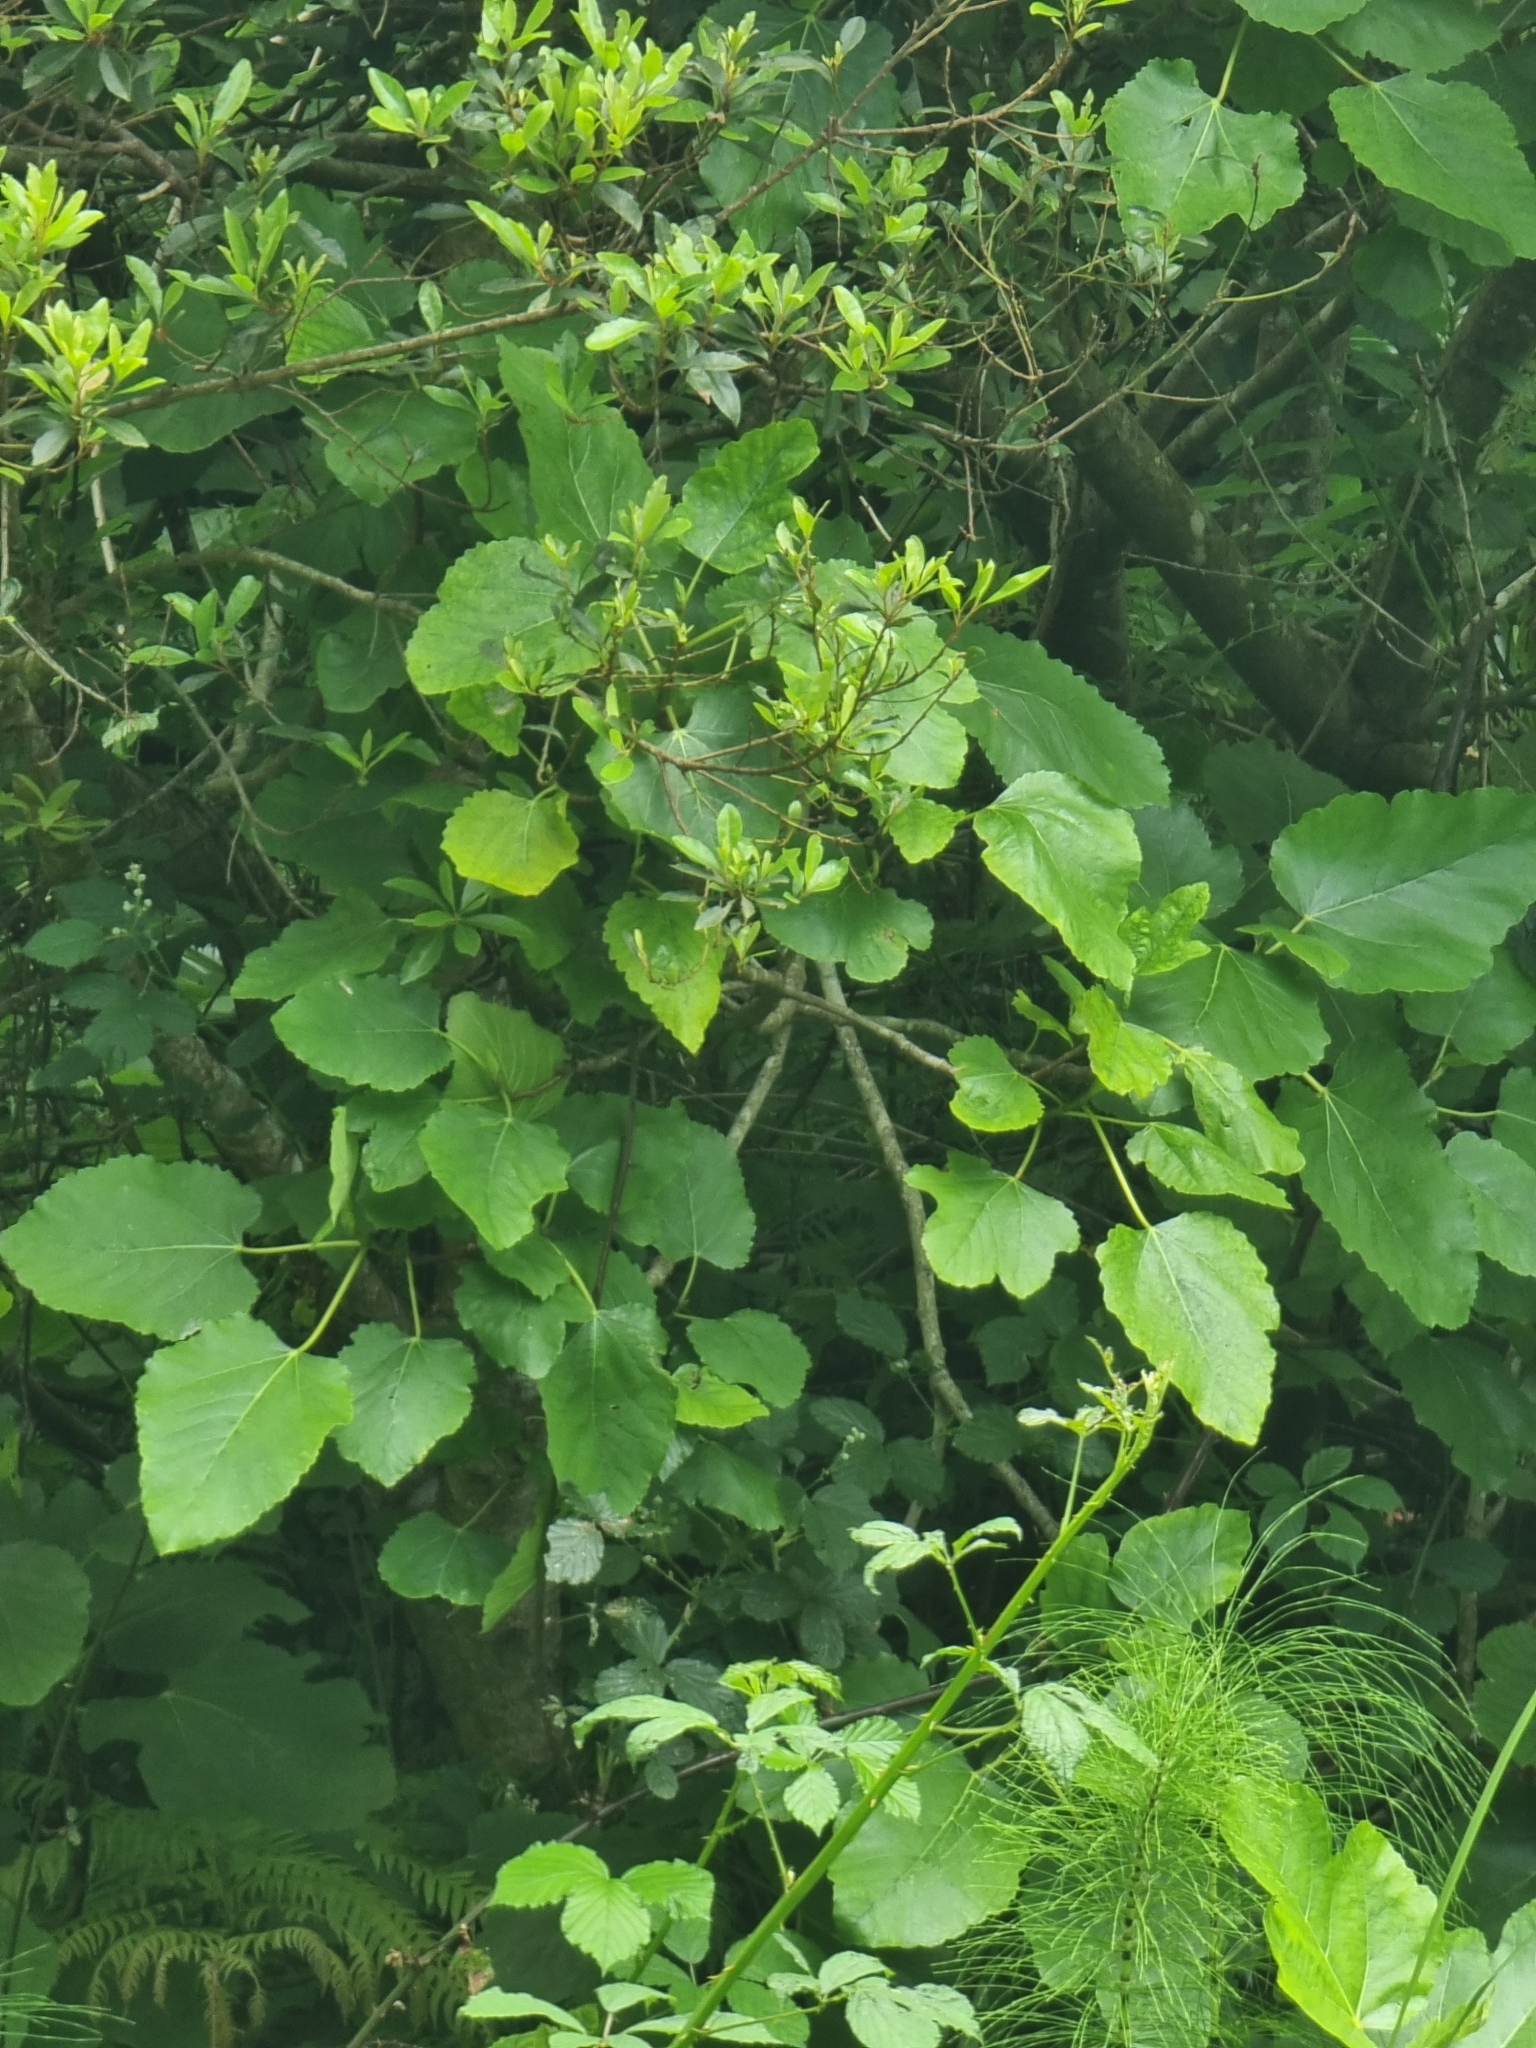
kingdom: Plantae
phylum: Tracheophyta
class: Magnoliopsida
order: Rosales
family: Moraceae
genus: Ficus
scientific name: Ficus carica
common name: Fig
